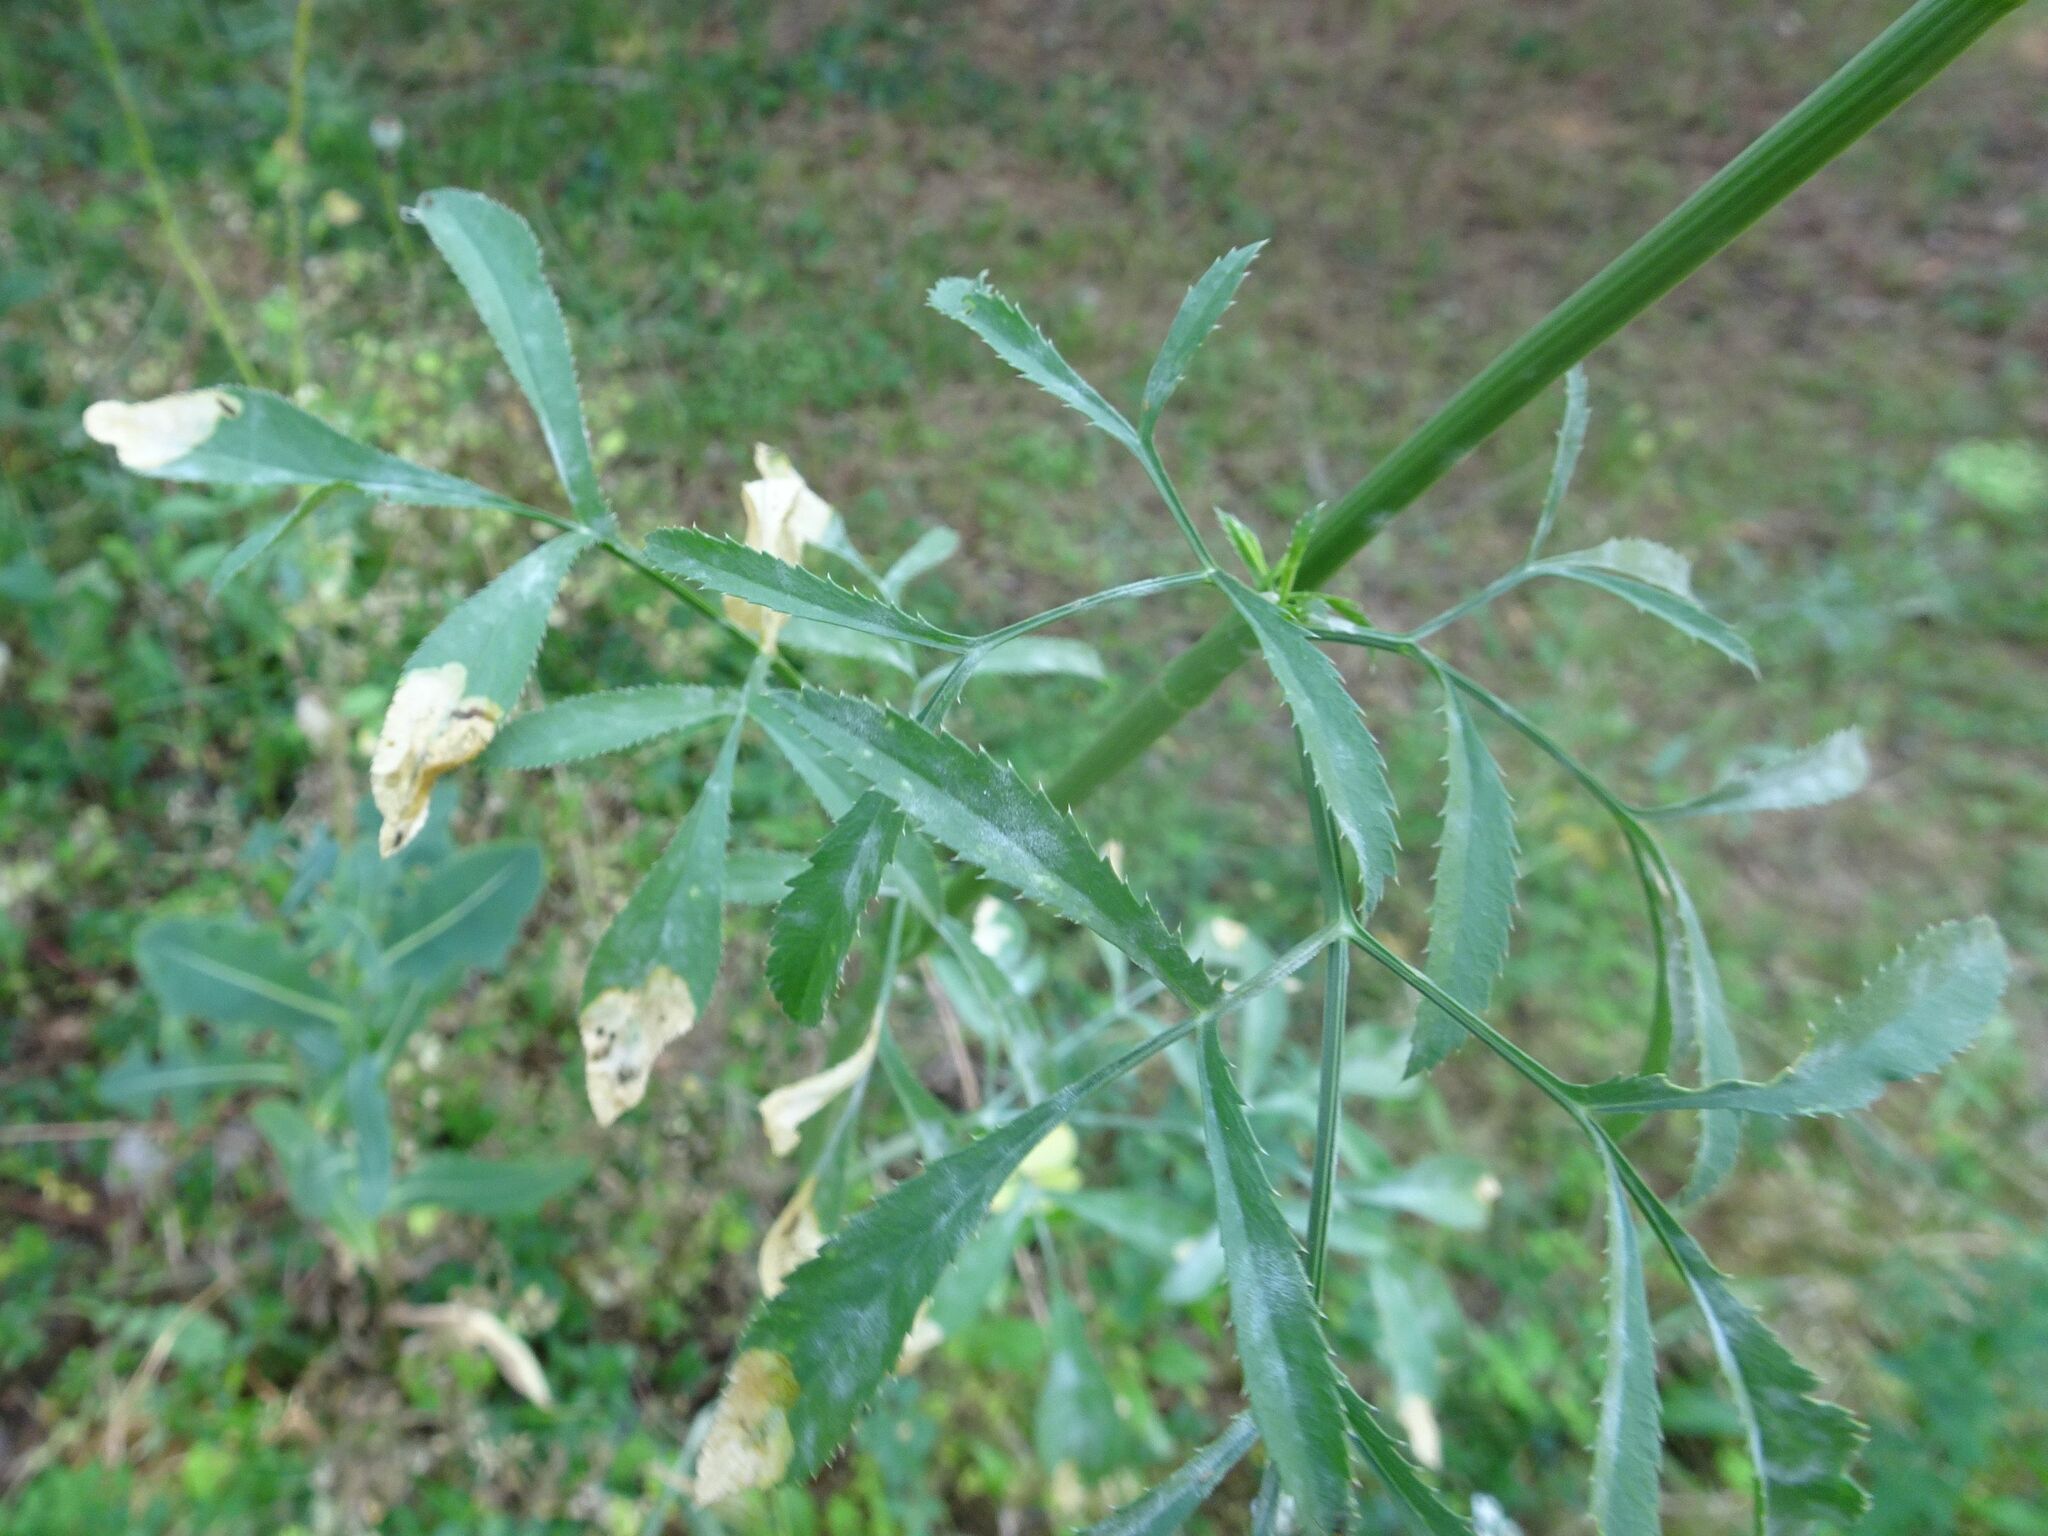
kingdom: Plantae
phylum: Tracheophyta
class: Magnoliopsida
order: Apiales
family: Apiaceae
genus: Ammi
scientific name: Ammi majus
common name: Bullwort
